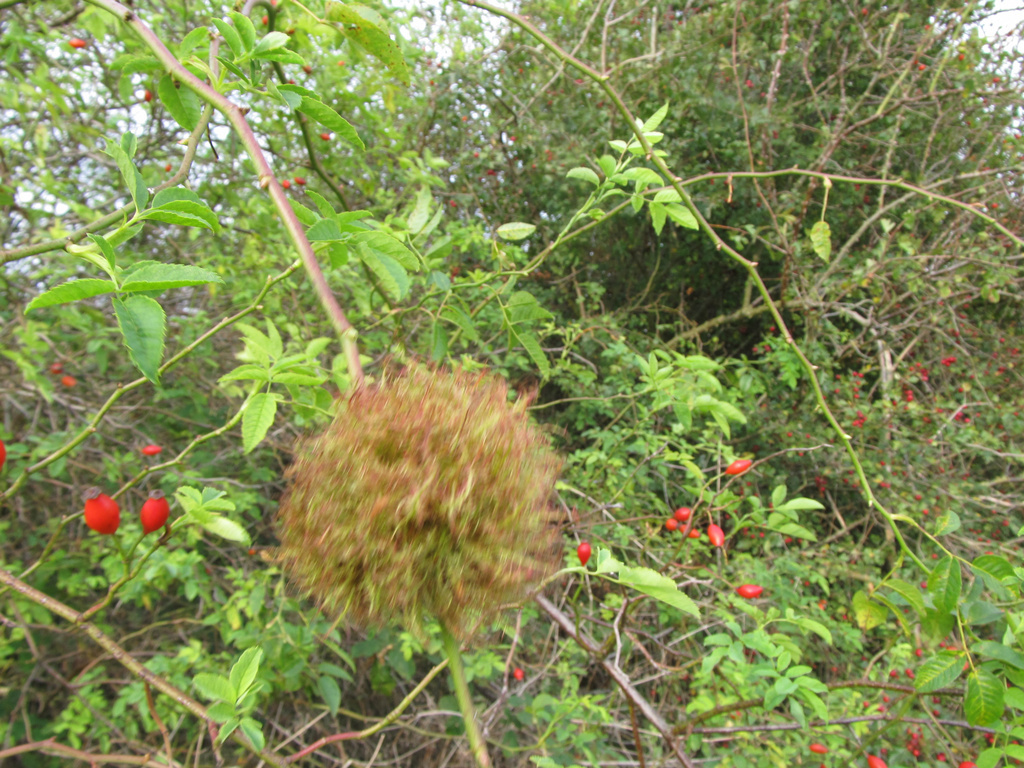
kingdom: Animalia
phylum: Arthropoda
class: Insecta
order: Hymenoptera
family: Cynipidae
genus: Diplolepis
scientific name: Diplolepis rosae
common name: Bedeguar gall
